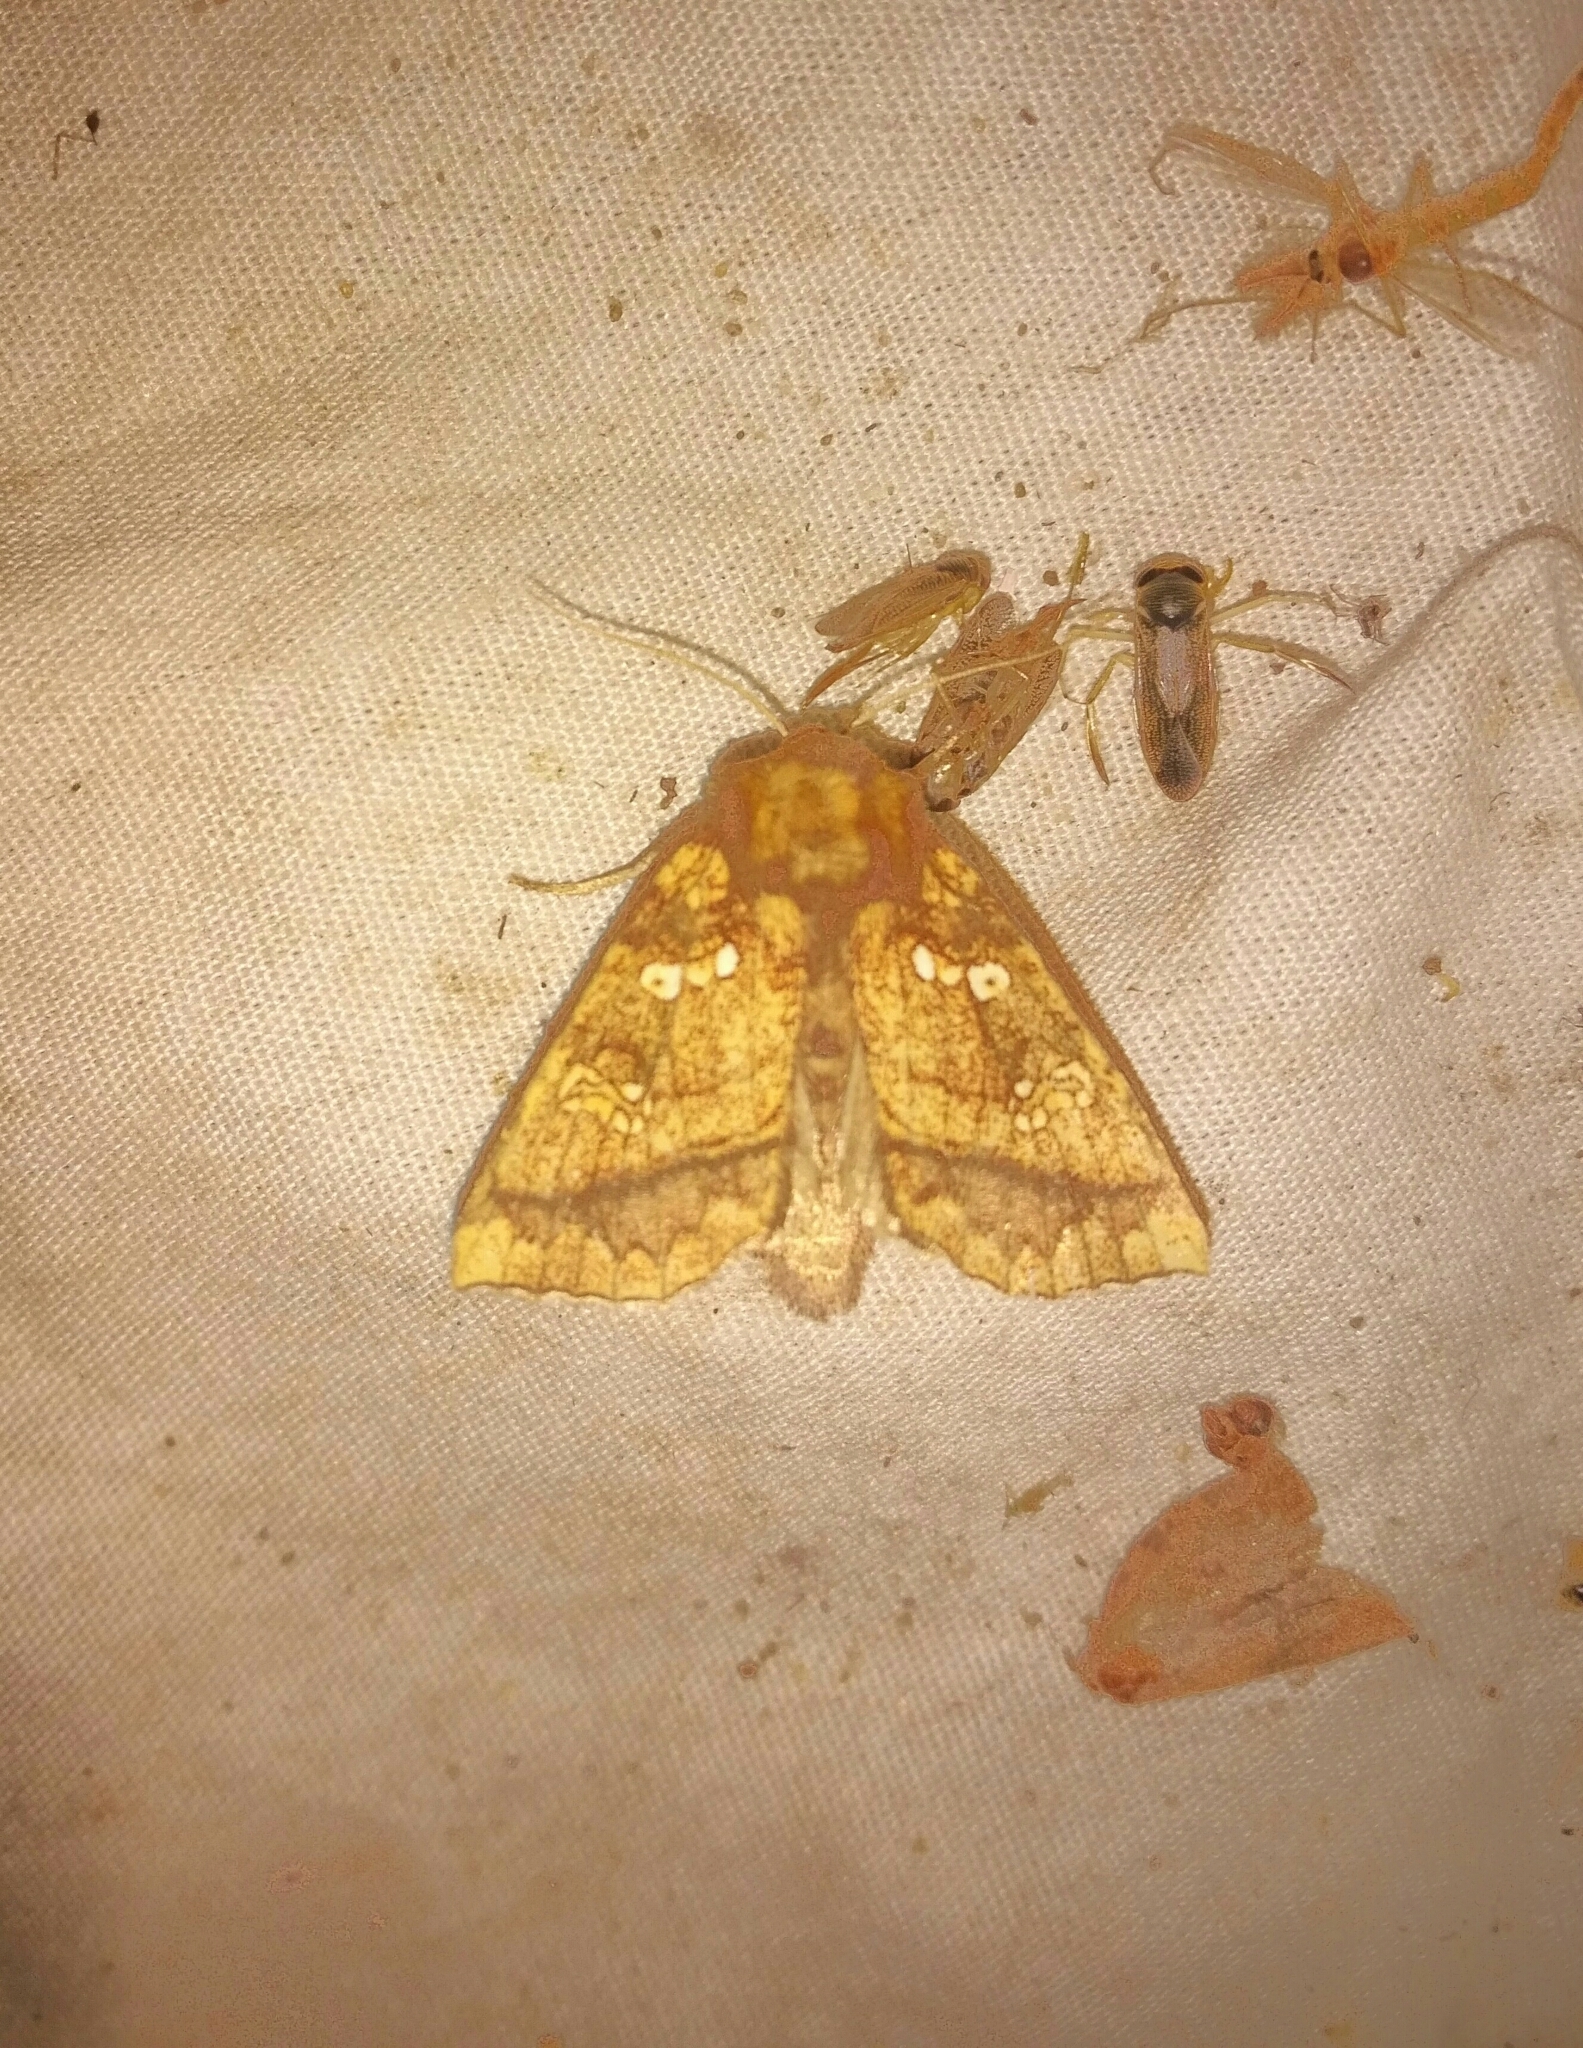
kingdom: Animalia
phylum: Arthropoda
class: Insecta
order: Lepidoptera
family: Noctuidae
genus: Papaipema
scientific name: Papaipema harrisii
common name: Heracleum stem borer moth
